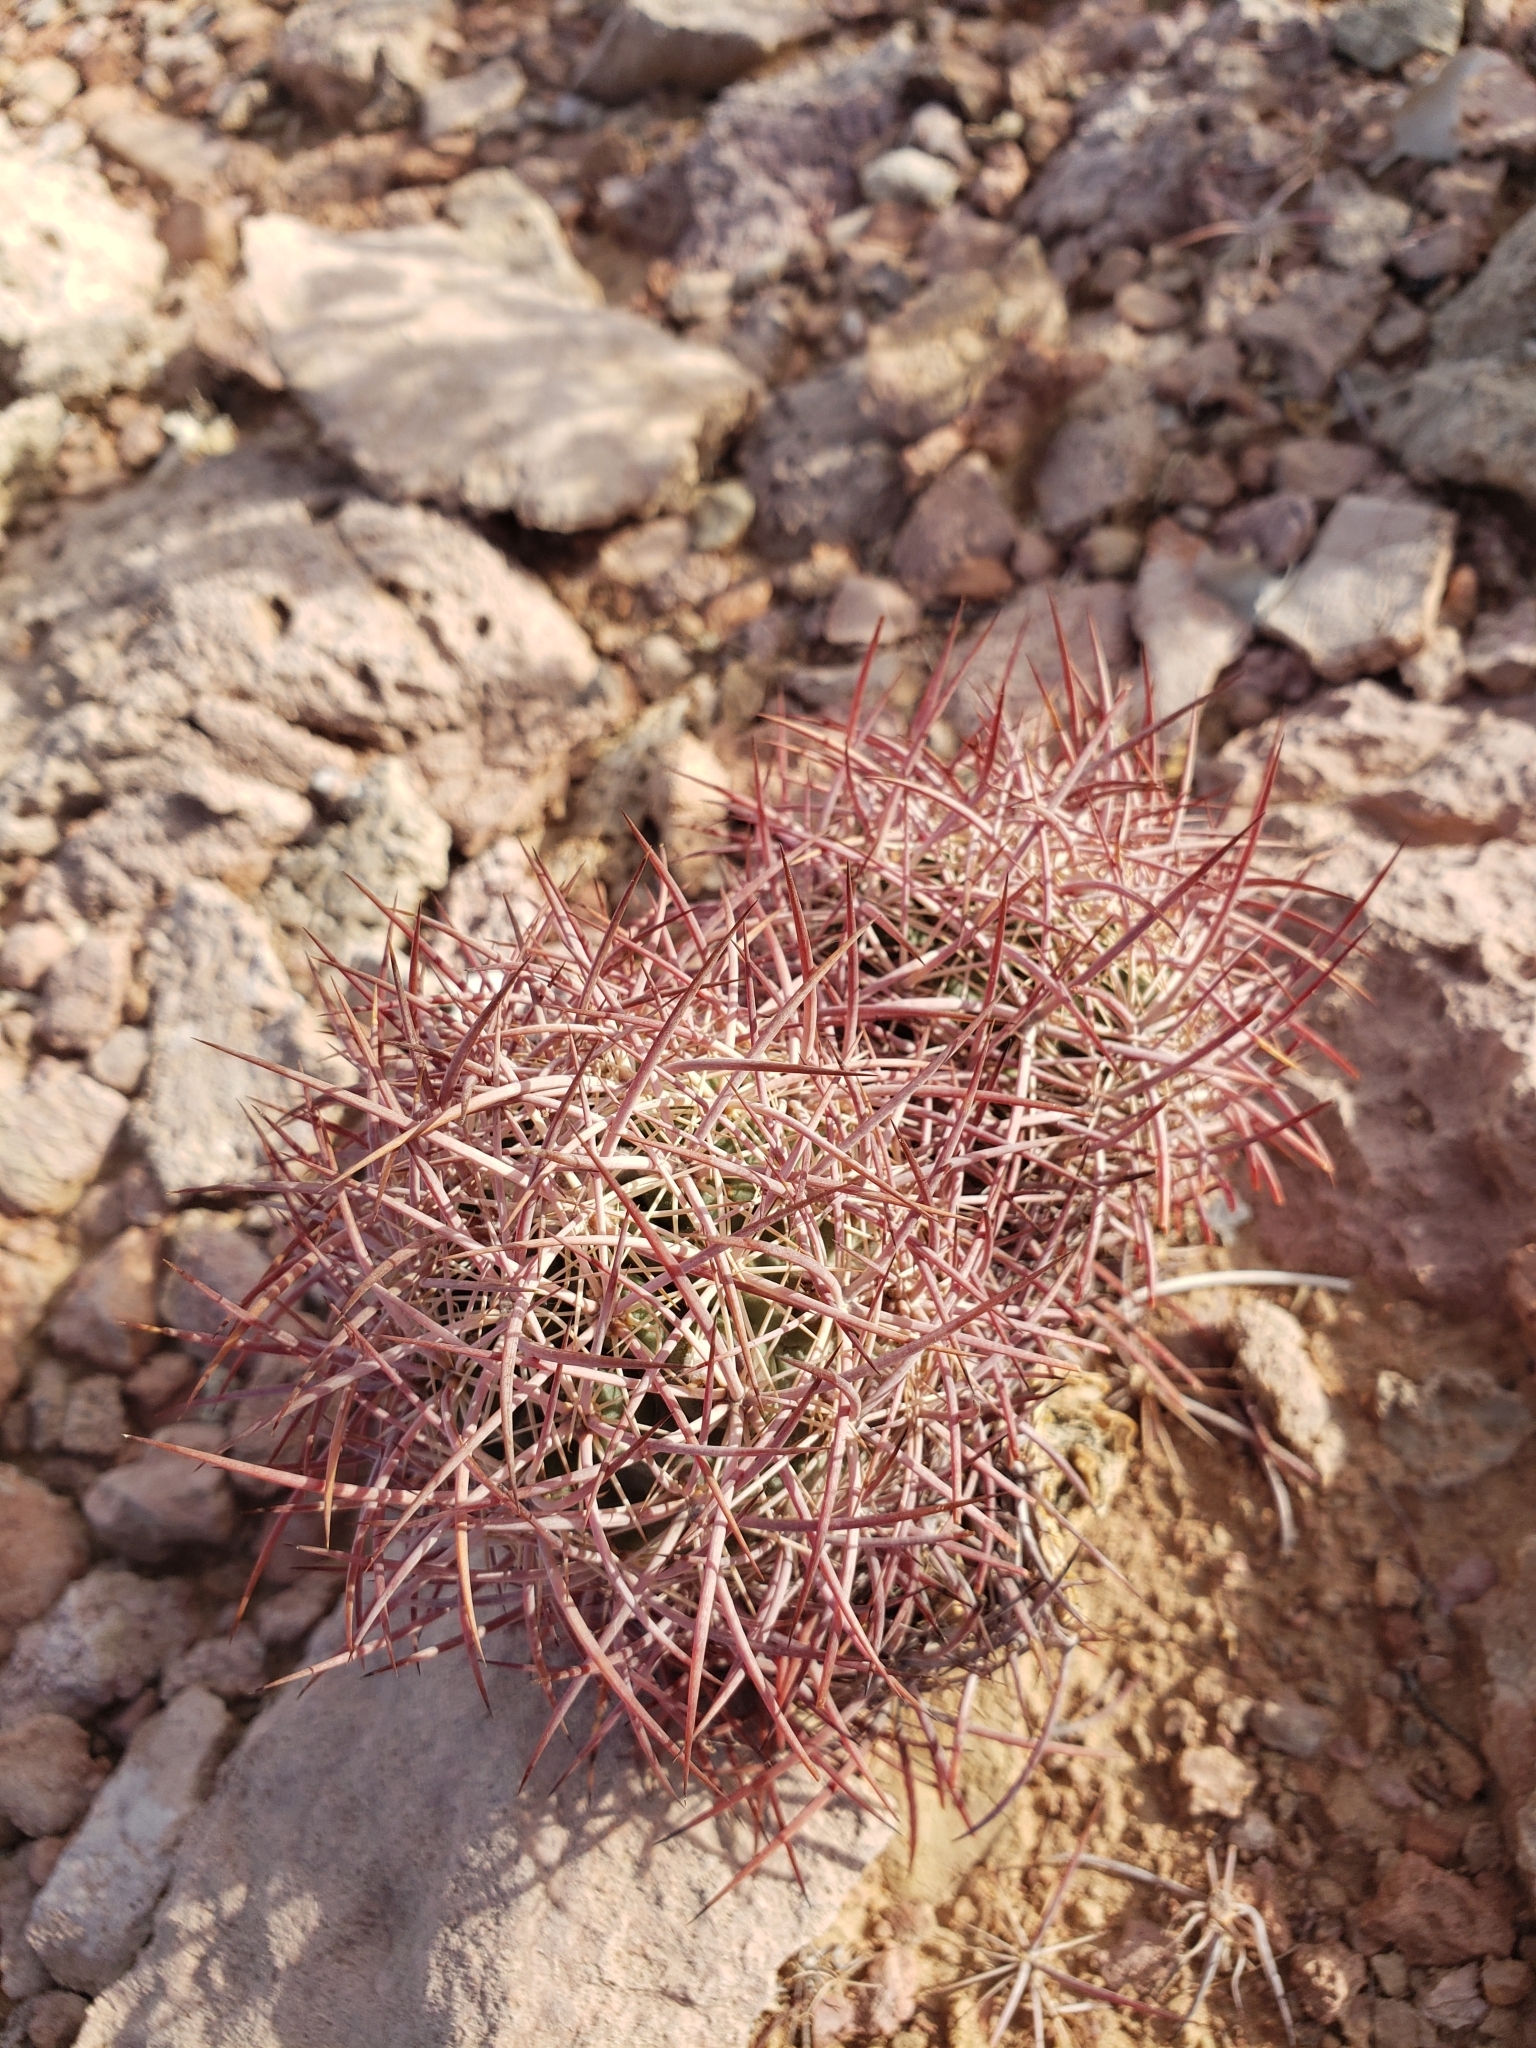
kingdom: Plantae
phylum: Tracheophyta
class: Magnoliopsida
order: Caryophyllales
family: Cactaceae
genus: Sclerocactus
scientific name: Sclerocactus johnsonii
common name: Eight-spine fishhook cactus
